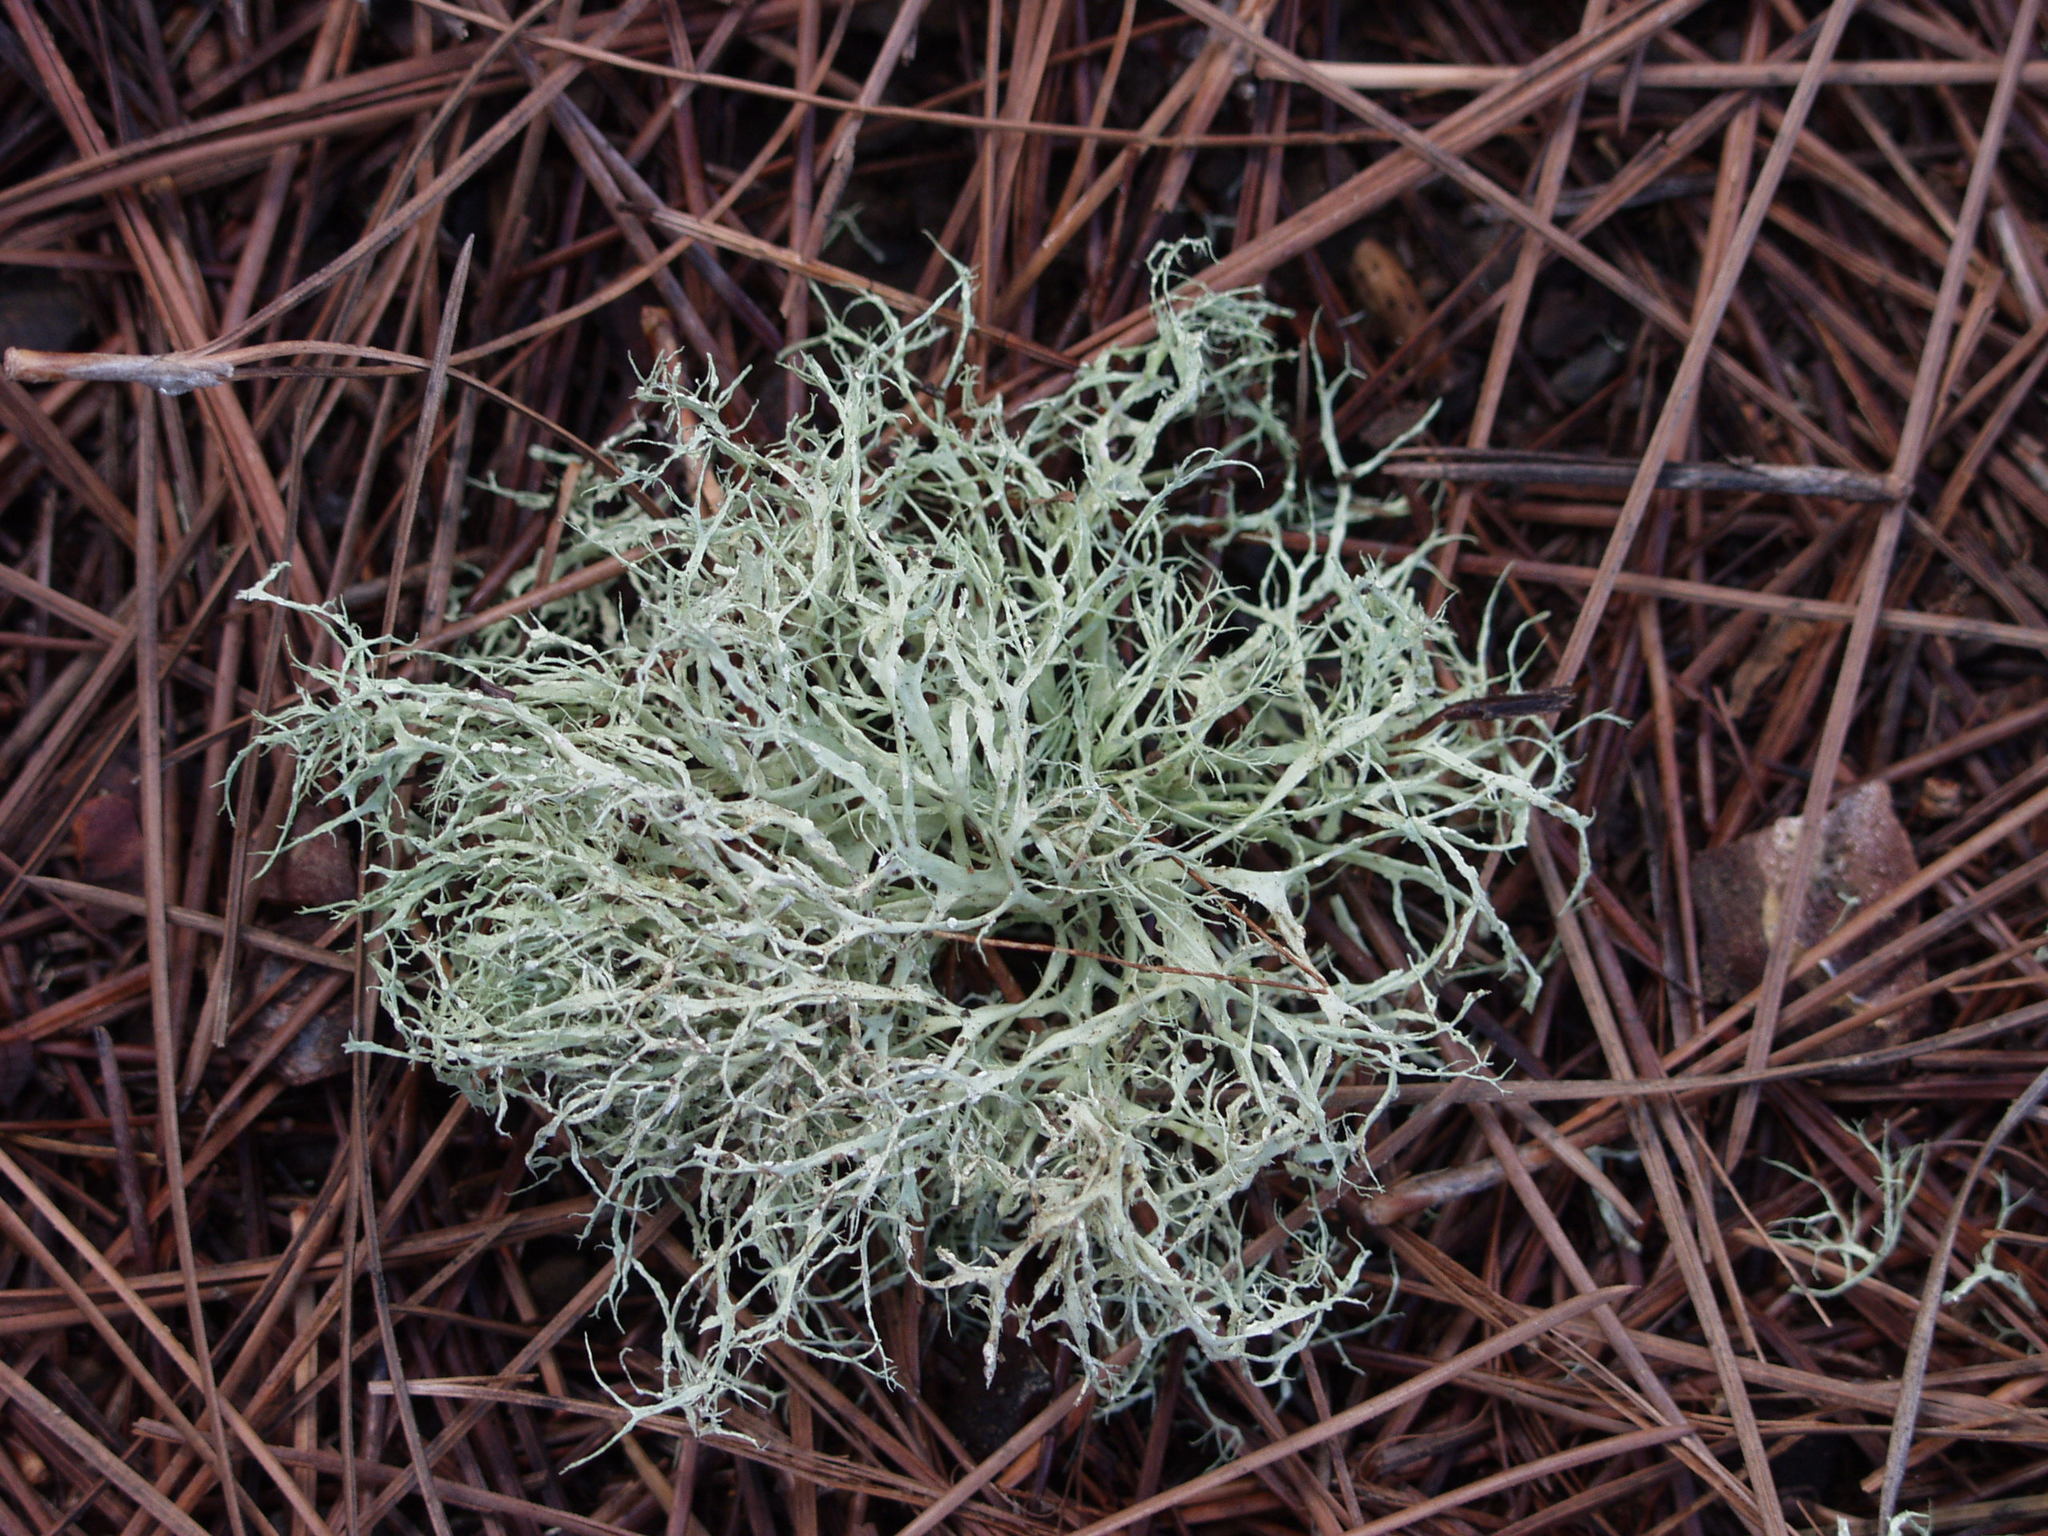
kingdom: Fungi
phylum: Ascomycota
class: Lecanoromycetes
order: Lecanorales
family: Ramalinaceae
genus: Ramalina
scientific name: Ramalina farinacea
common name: Farinose cartilage lichen
